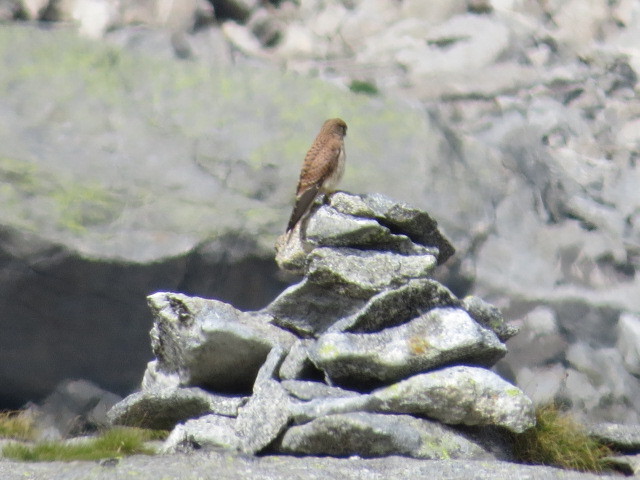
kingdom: Animalia
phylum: Chordata
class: Aves
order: Falconiformes
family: Falconidae
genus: Falco
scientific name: Falco tinnunculus
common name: Common kestrel
